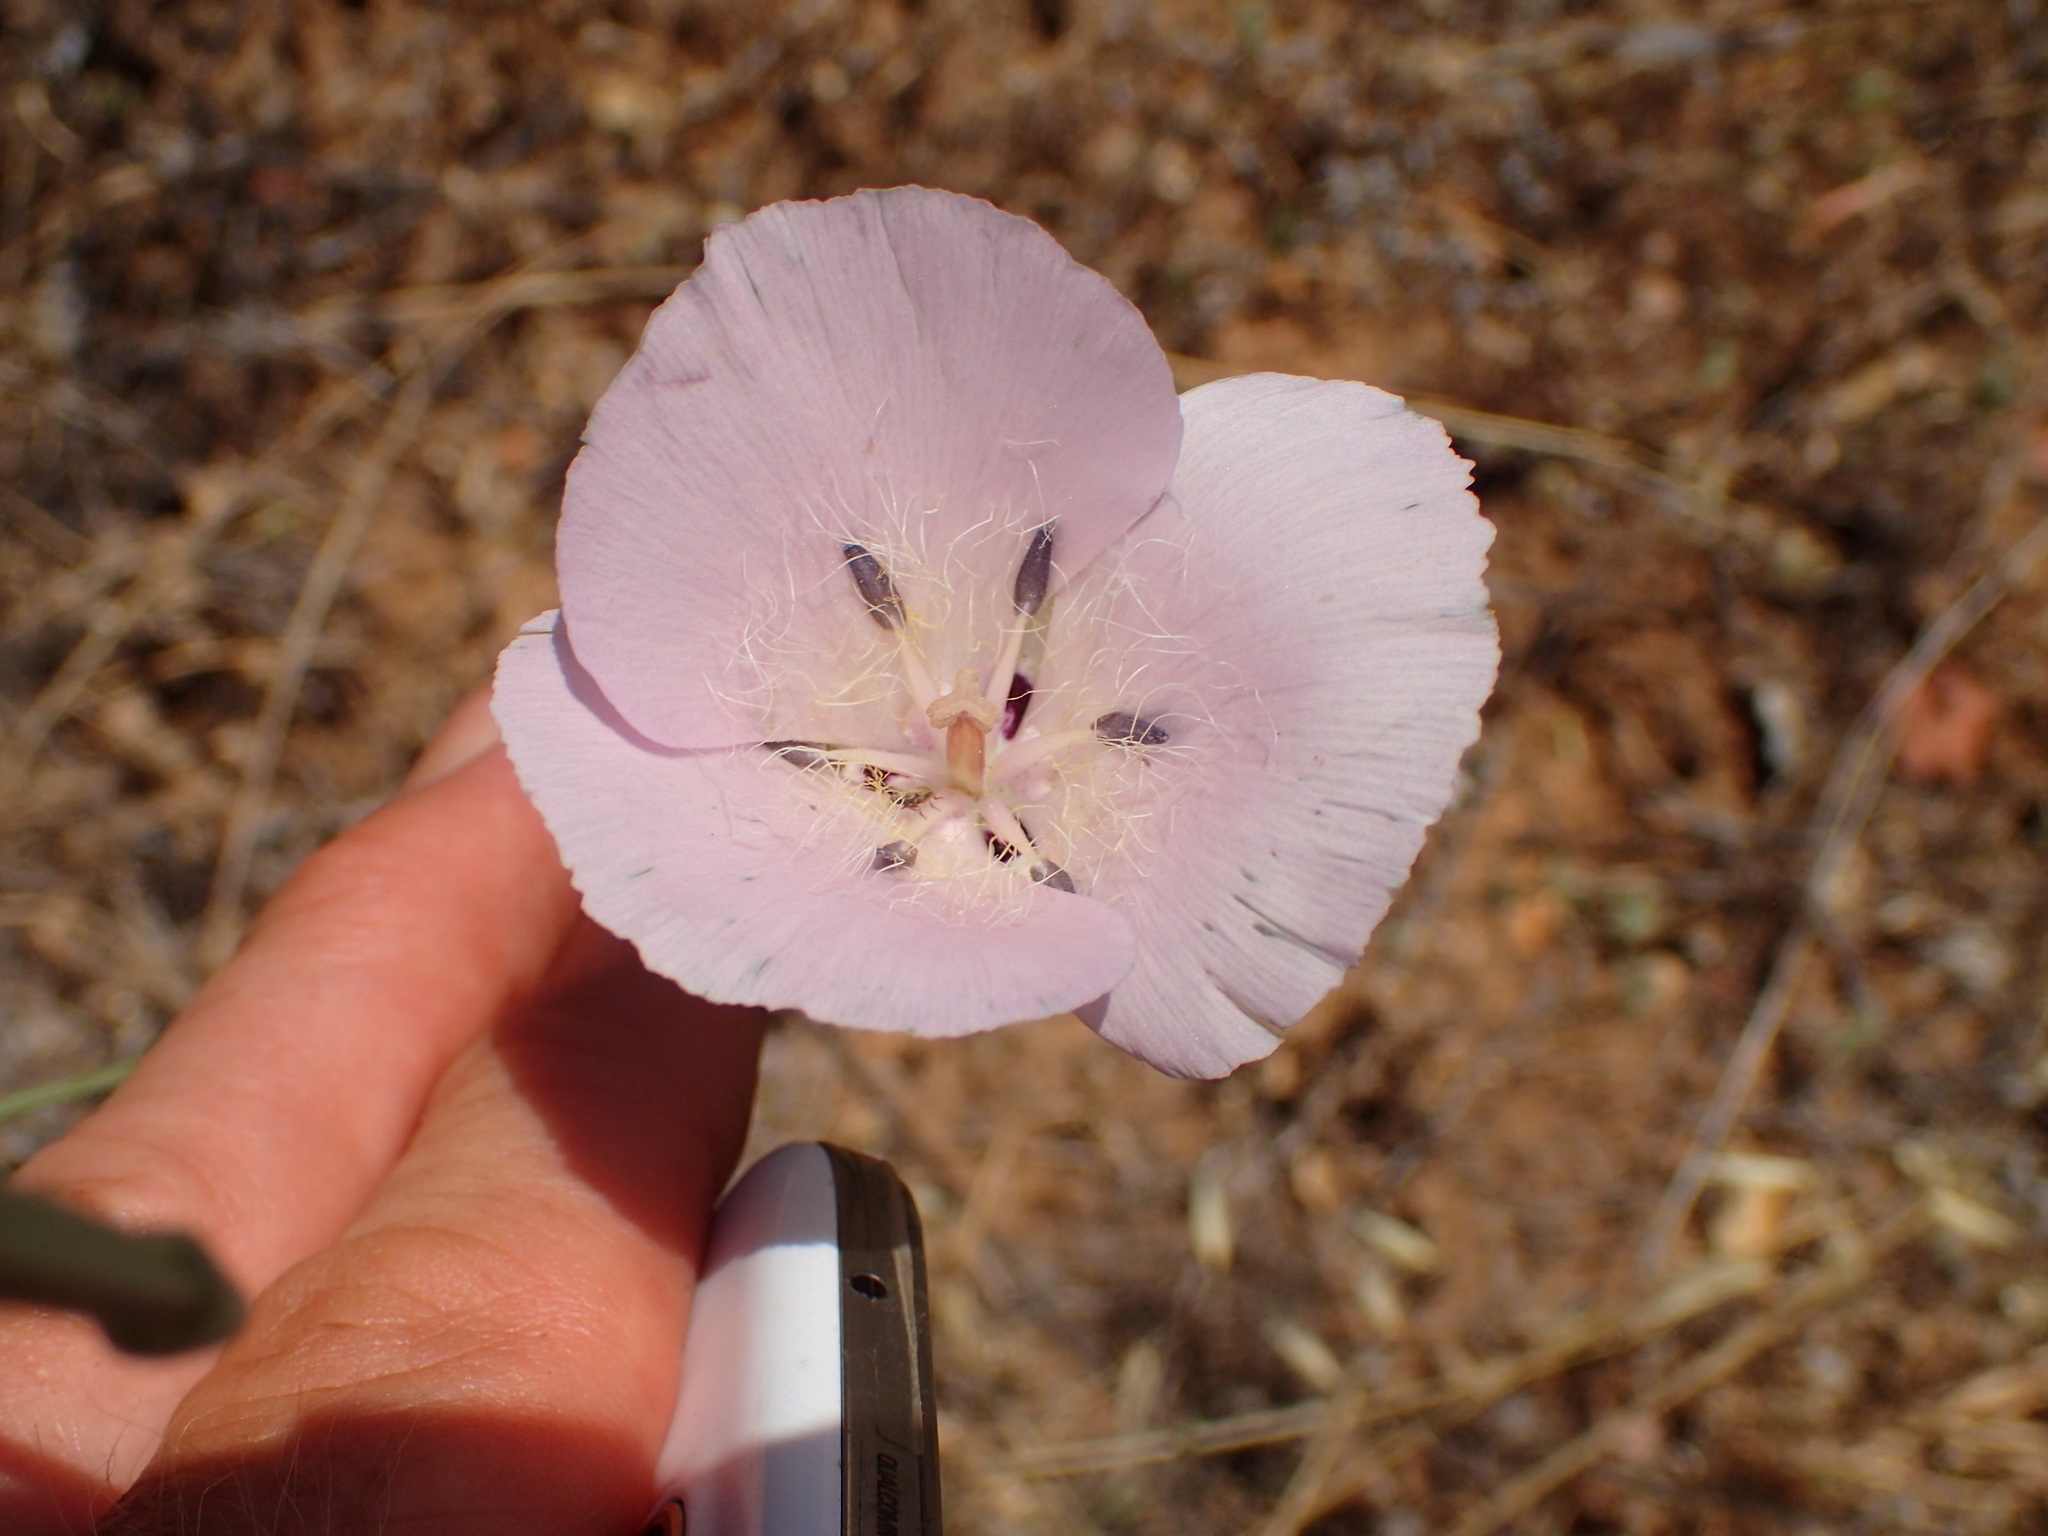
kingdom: Plantae
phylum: Tracheophyta
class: Liliopsida
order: Liliales
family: Liliaceae
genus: Calochortus
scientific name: Calochortus splendens
